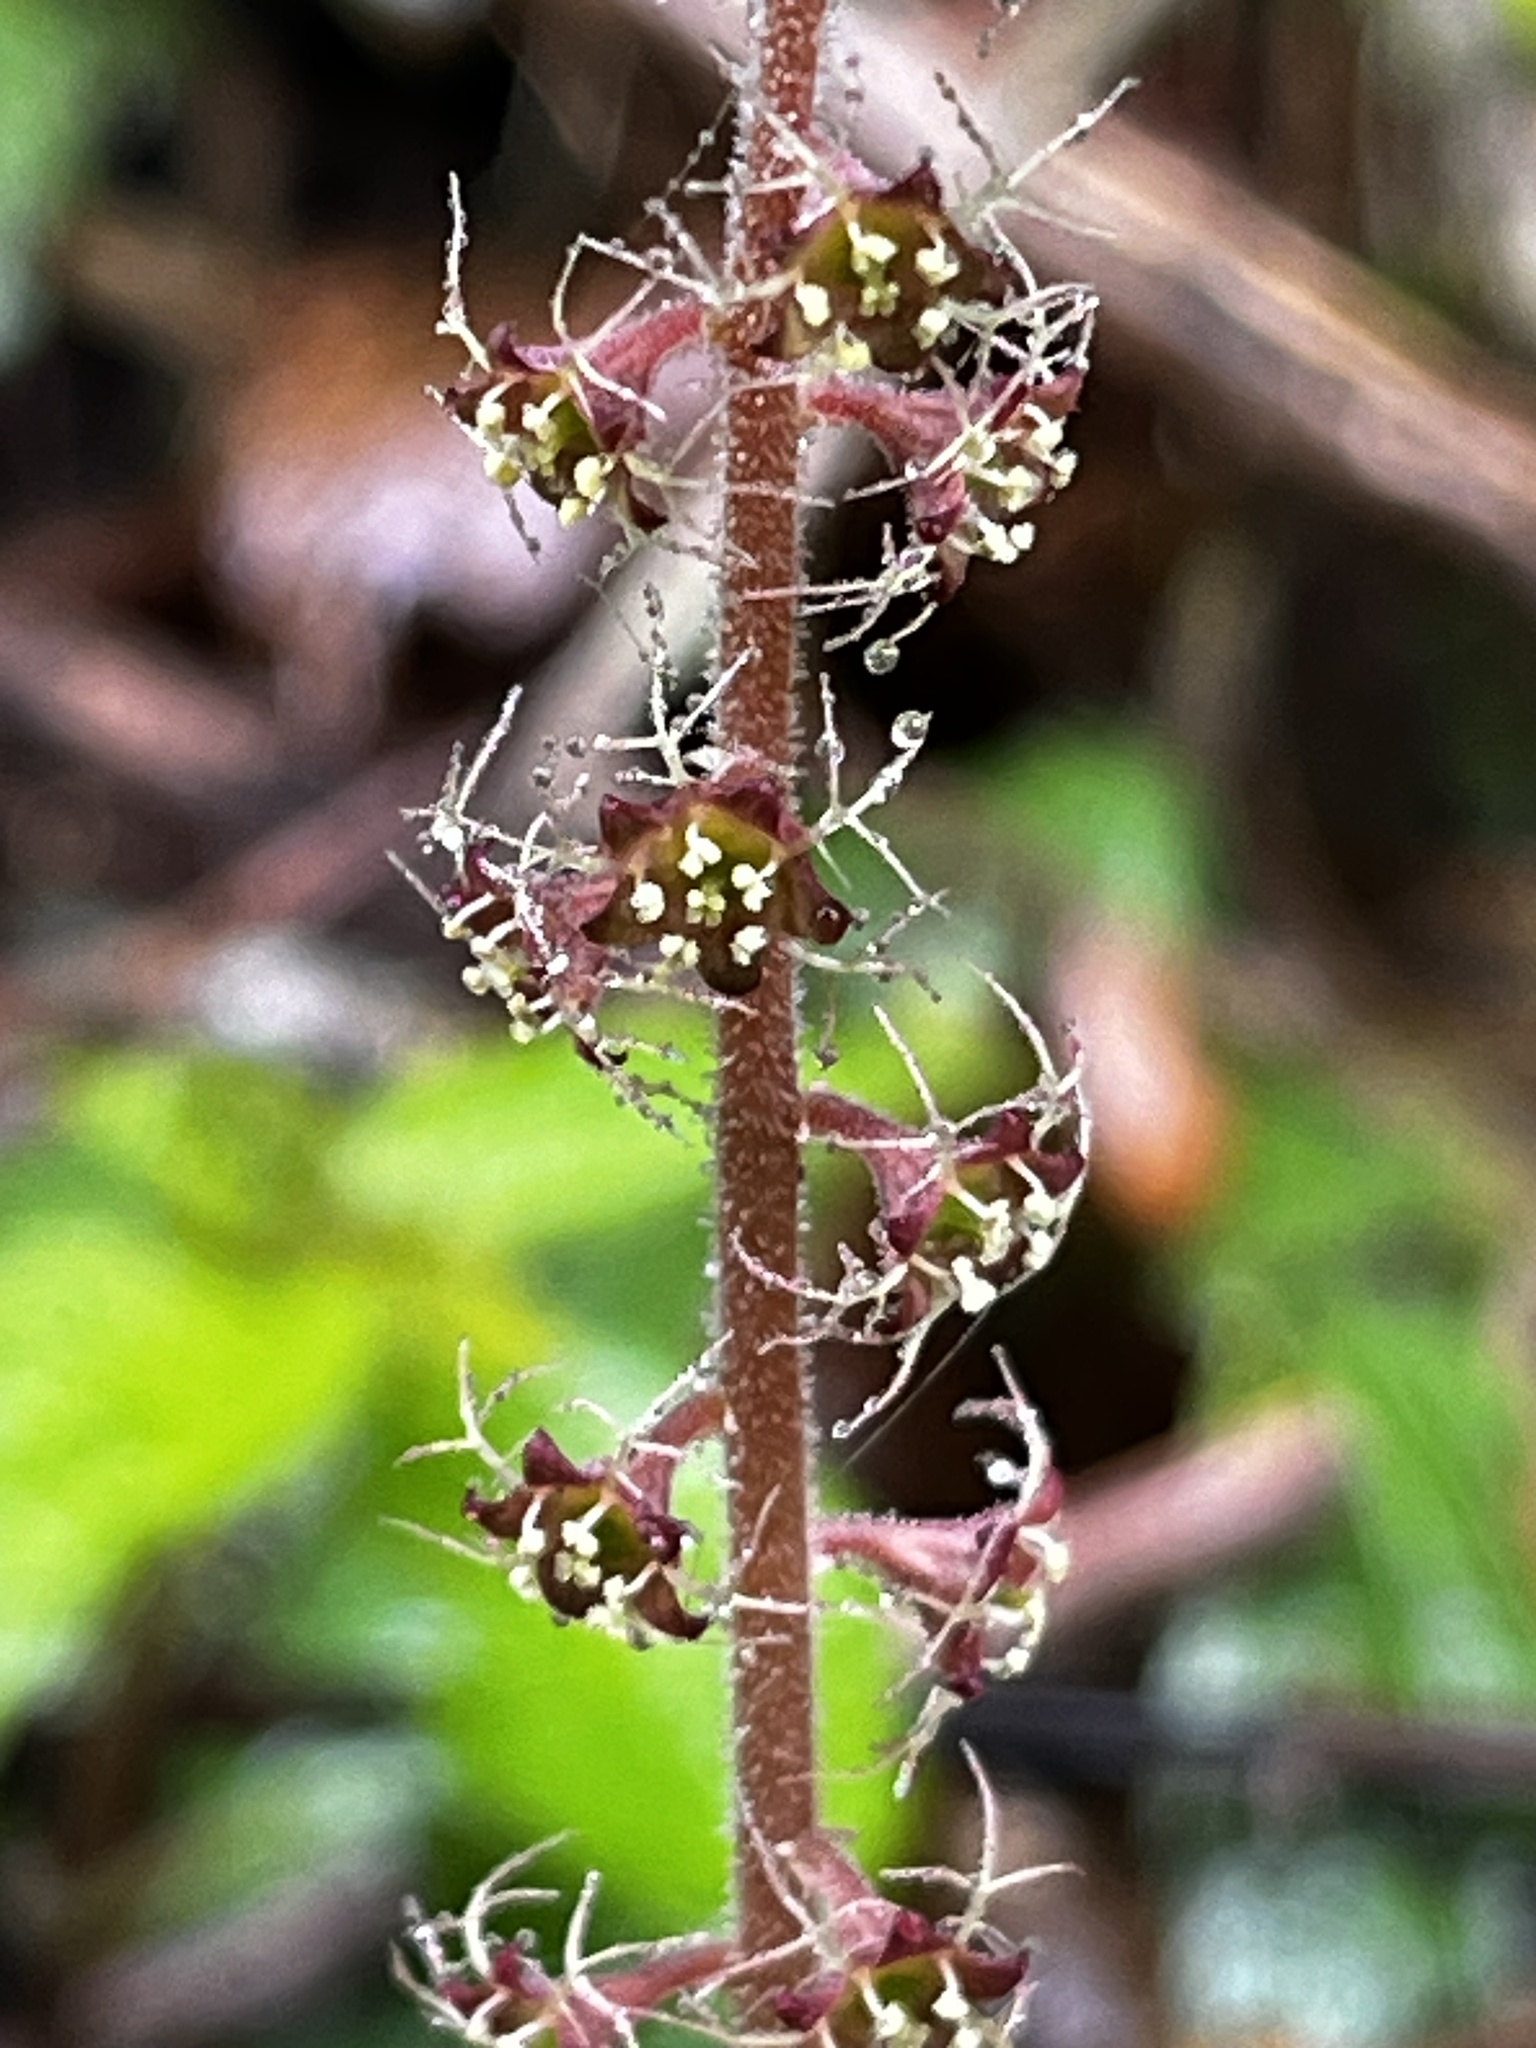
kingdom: Plantae
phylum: Tracheophyta
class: Magnoliopsida
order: Saxifragales
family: Saxifragaceae
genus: Asimitellaria
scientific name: Asimitellaria formosana
